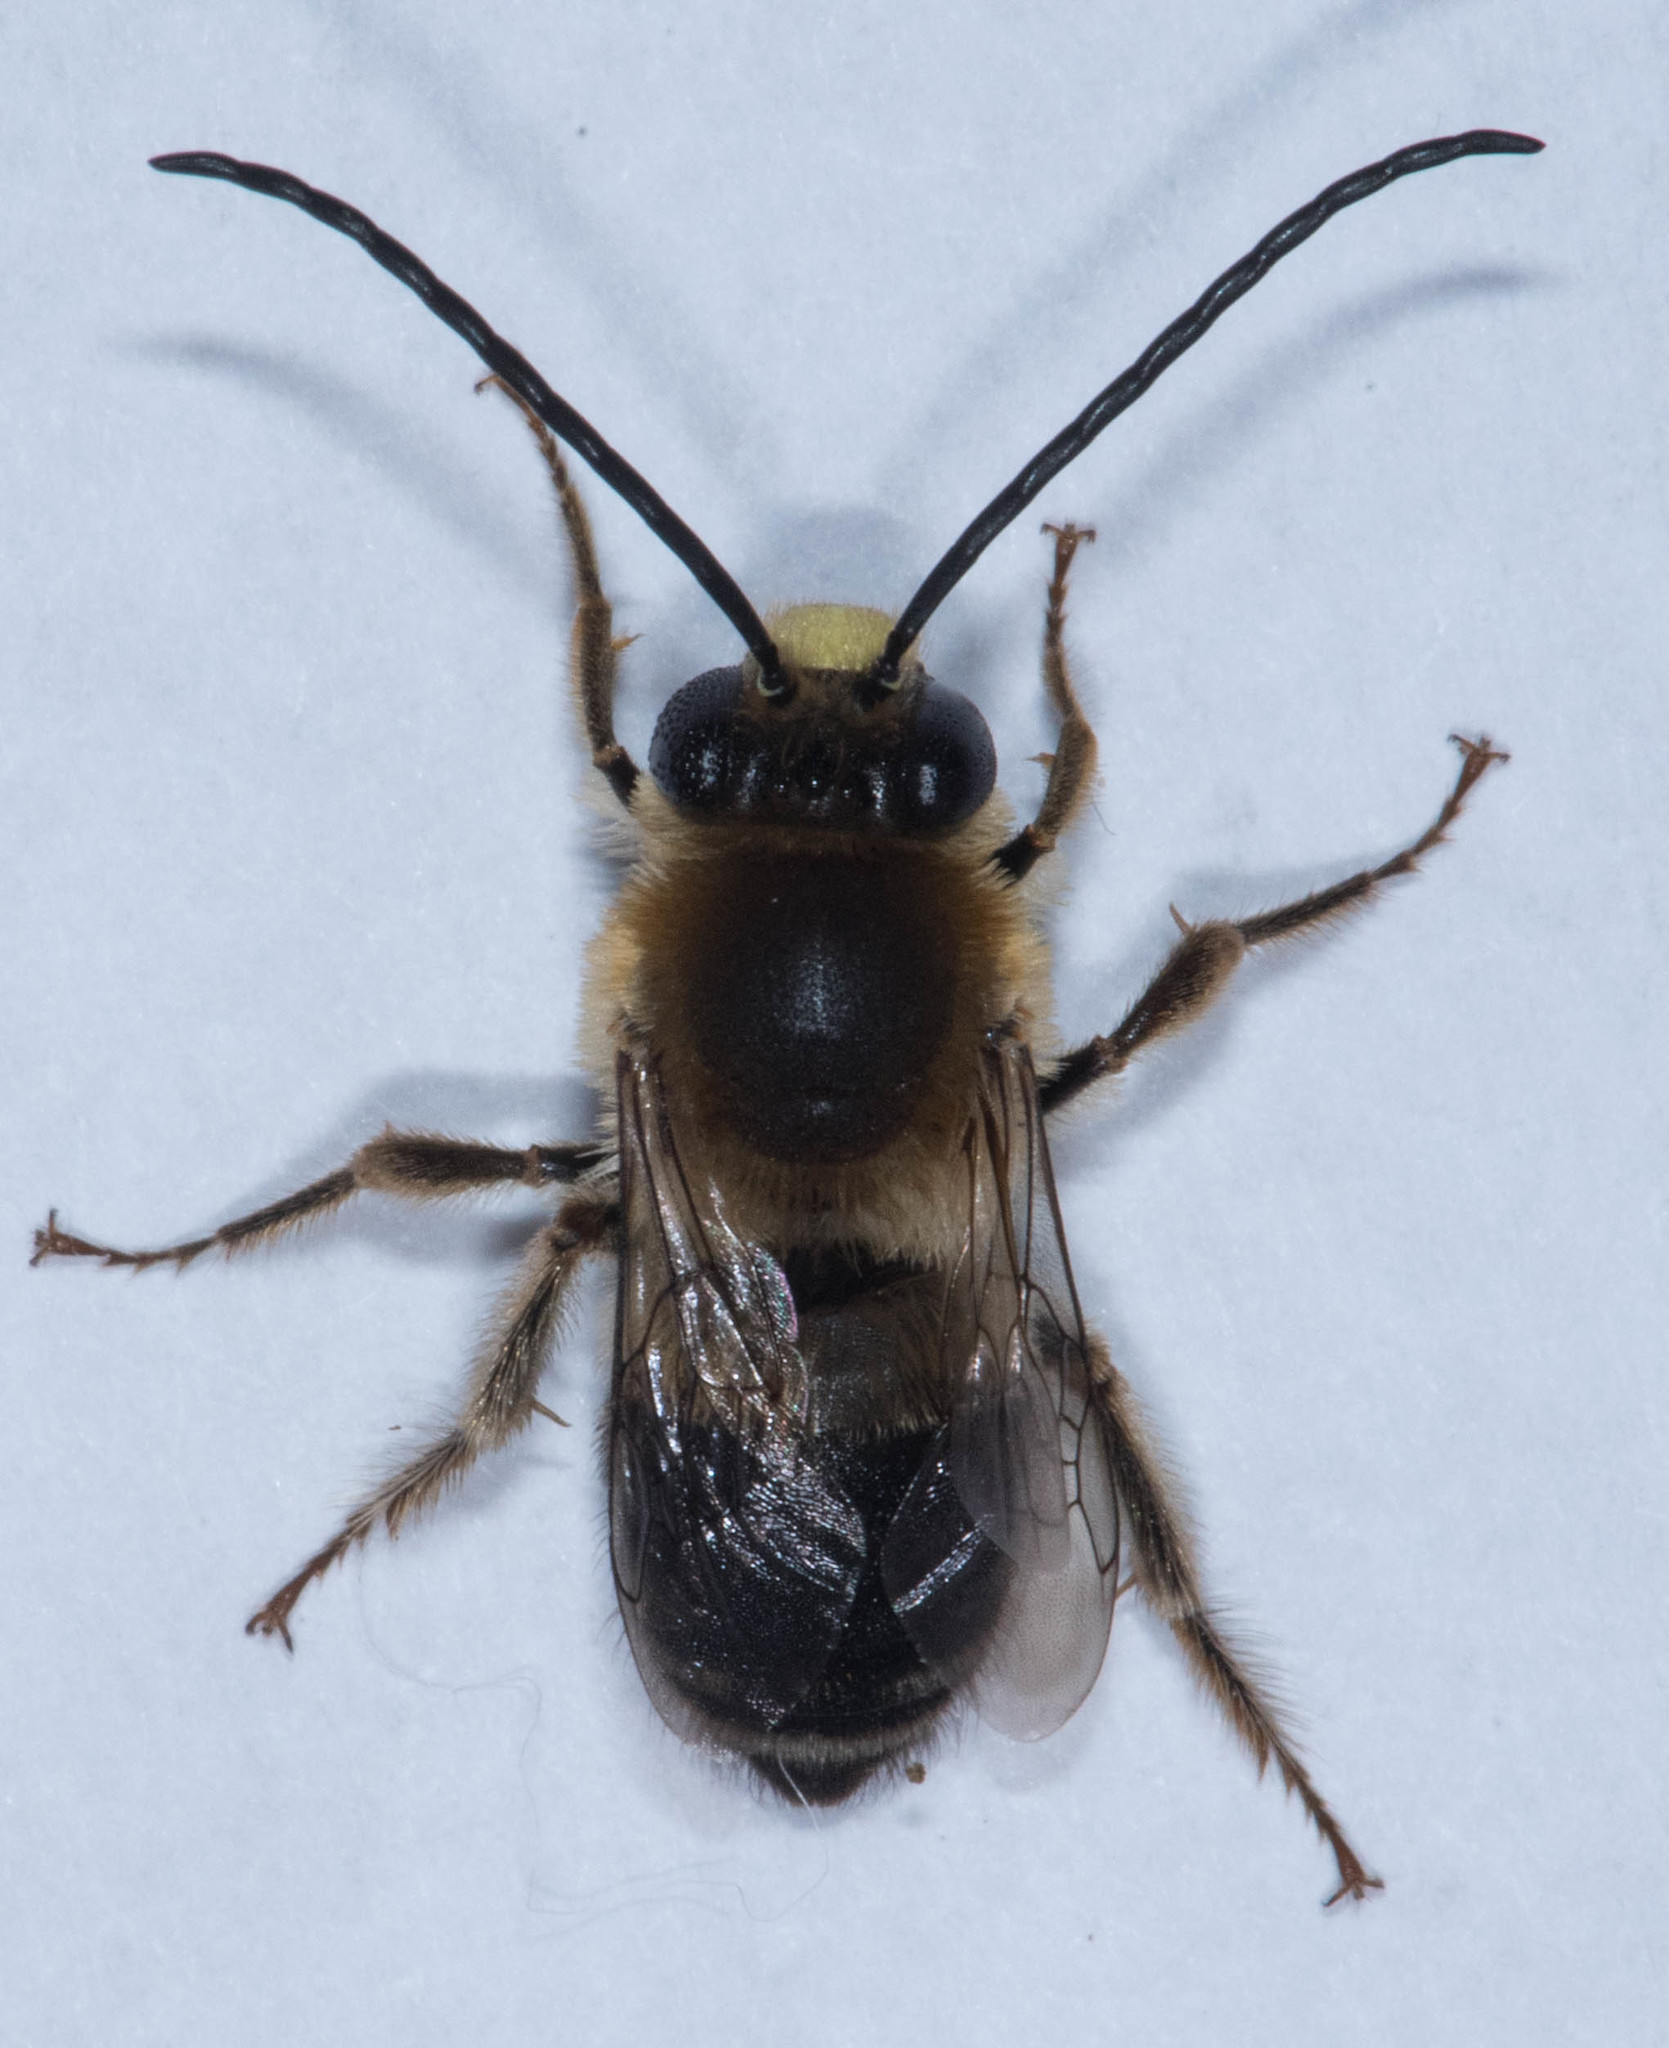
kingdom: Animalia
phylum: Arthropoda
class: Insecta
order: Hymenoptera
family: Apidae
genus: Eucera
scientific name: Eucera frater
